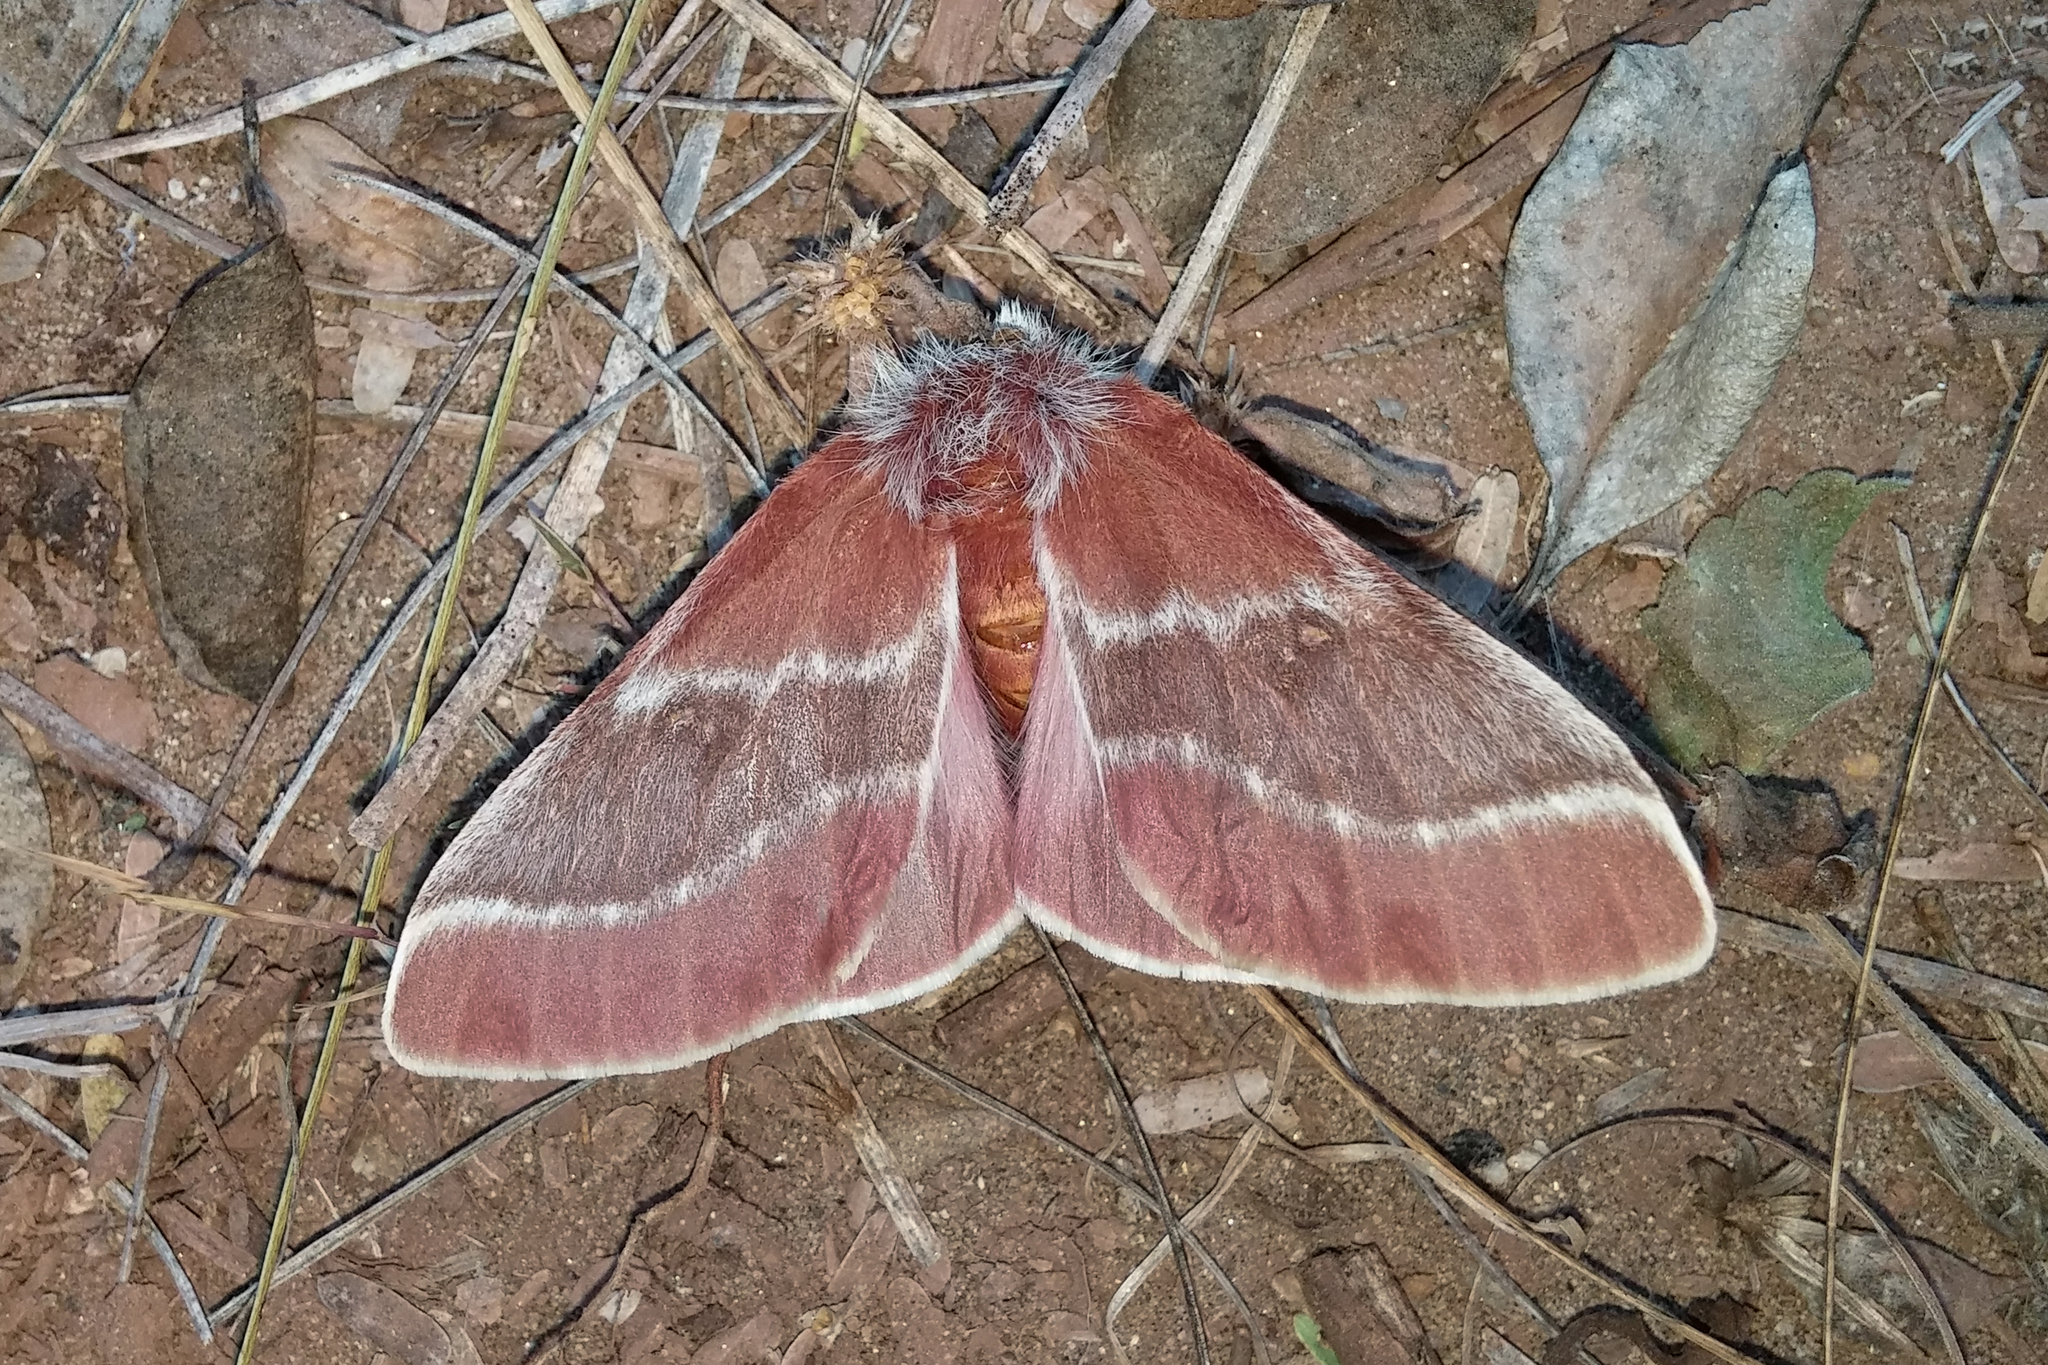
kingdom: Animalia
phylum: Arthropoda
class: Insecta
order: Lepidoptera
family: Saturniidae
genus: Hemileuca
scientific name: Hemileuca sororius
